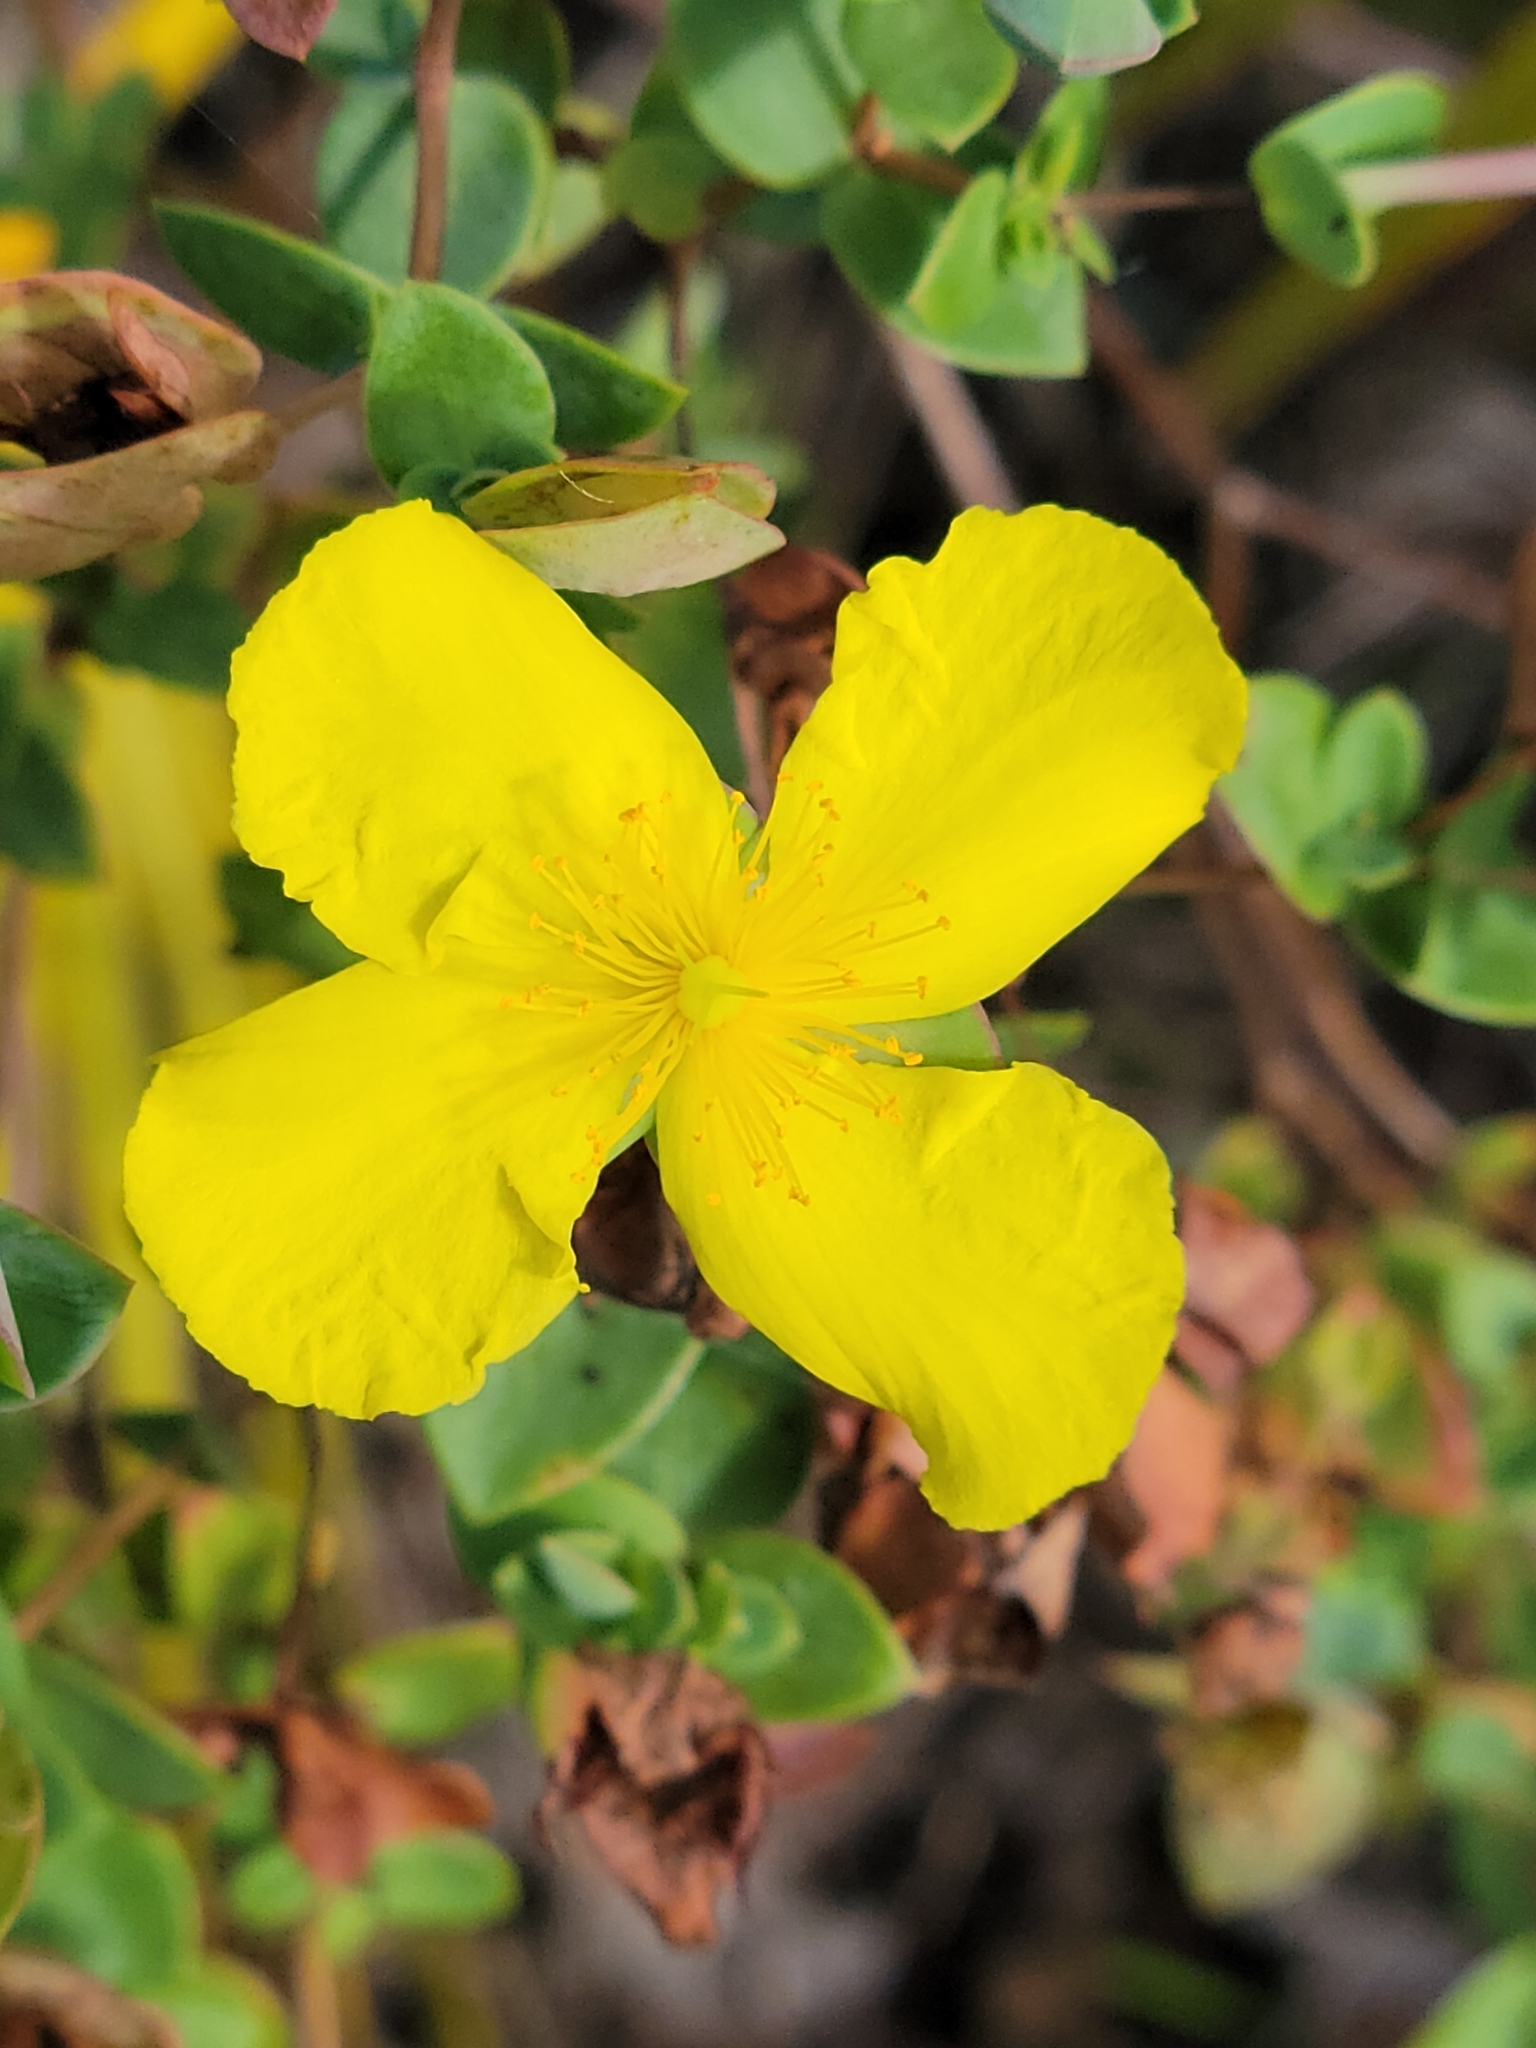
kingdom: Plantae
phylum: Tracheophyta
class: Magnoliopsida
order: Malpighiales
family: Hypericaceae
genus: Hypericum
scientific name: Hypericum tetrapetalum
